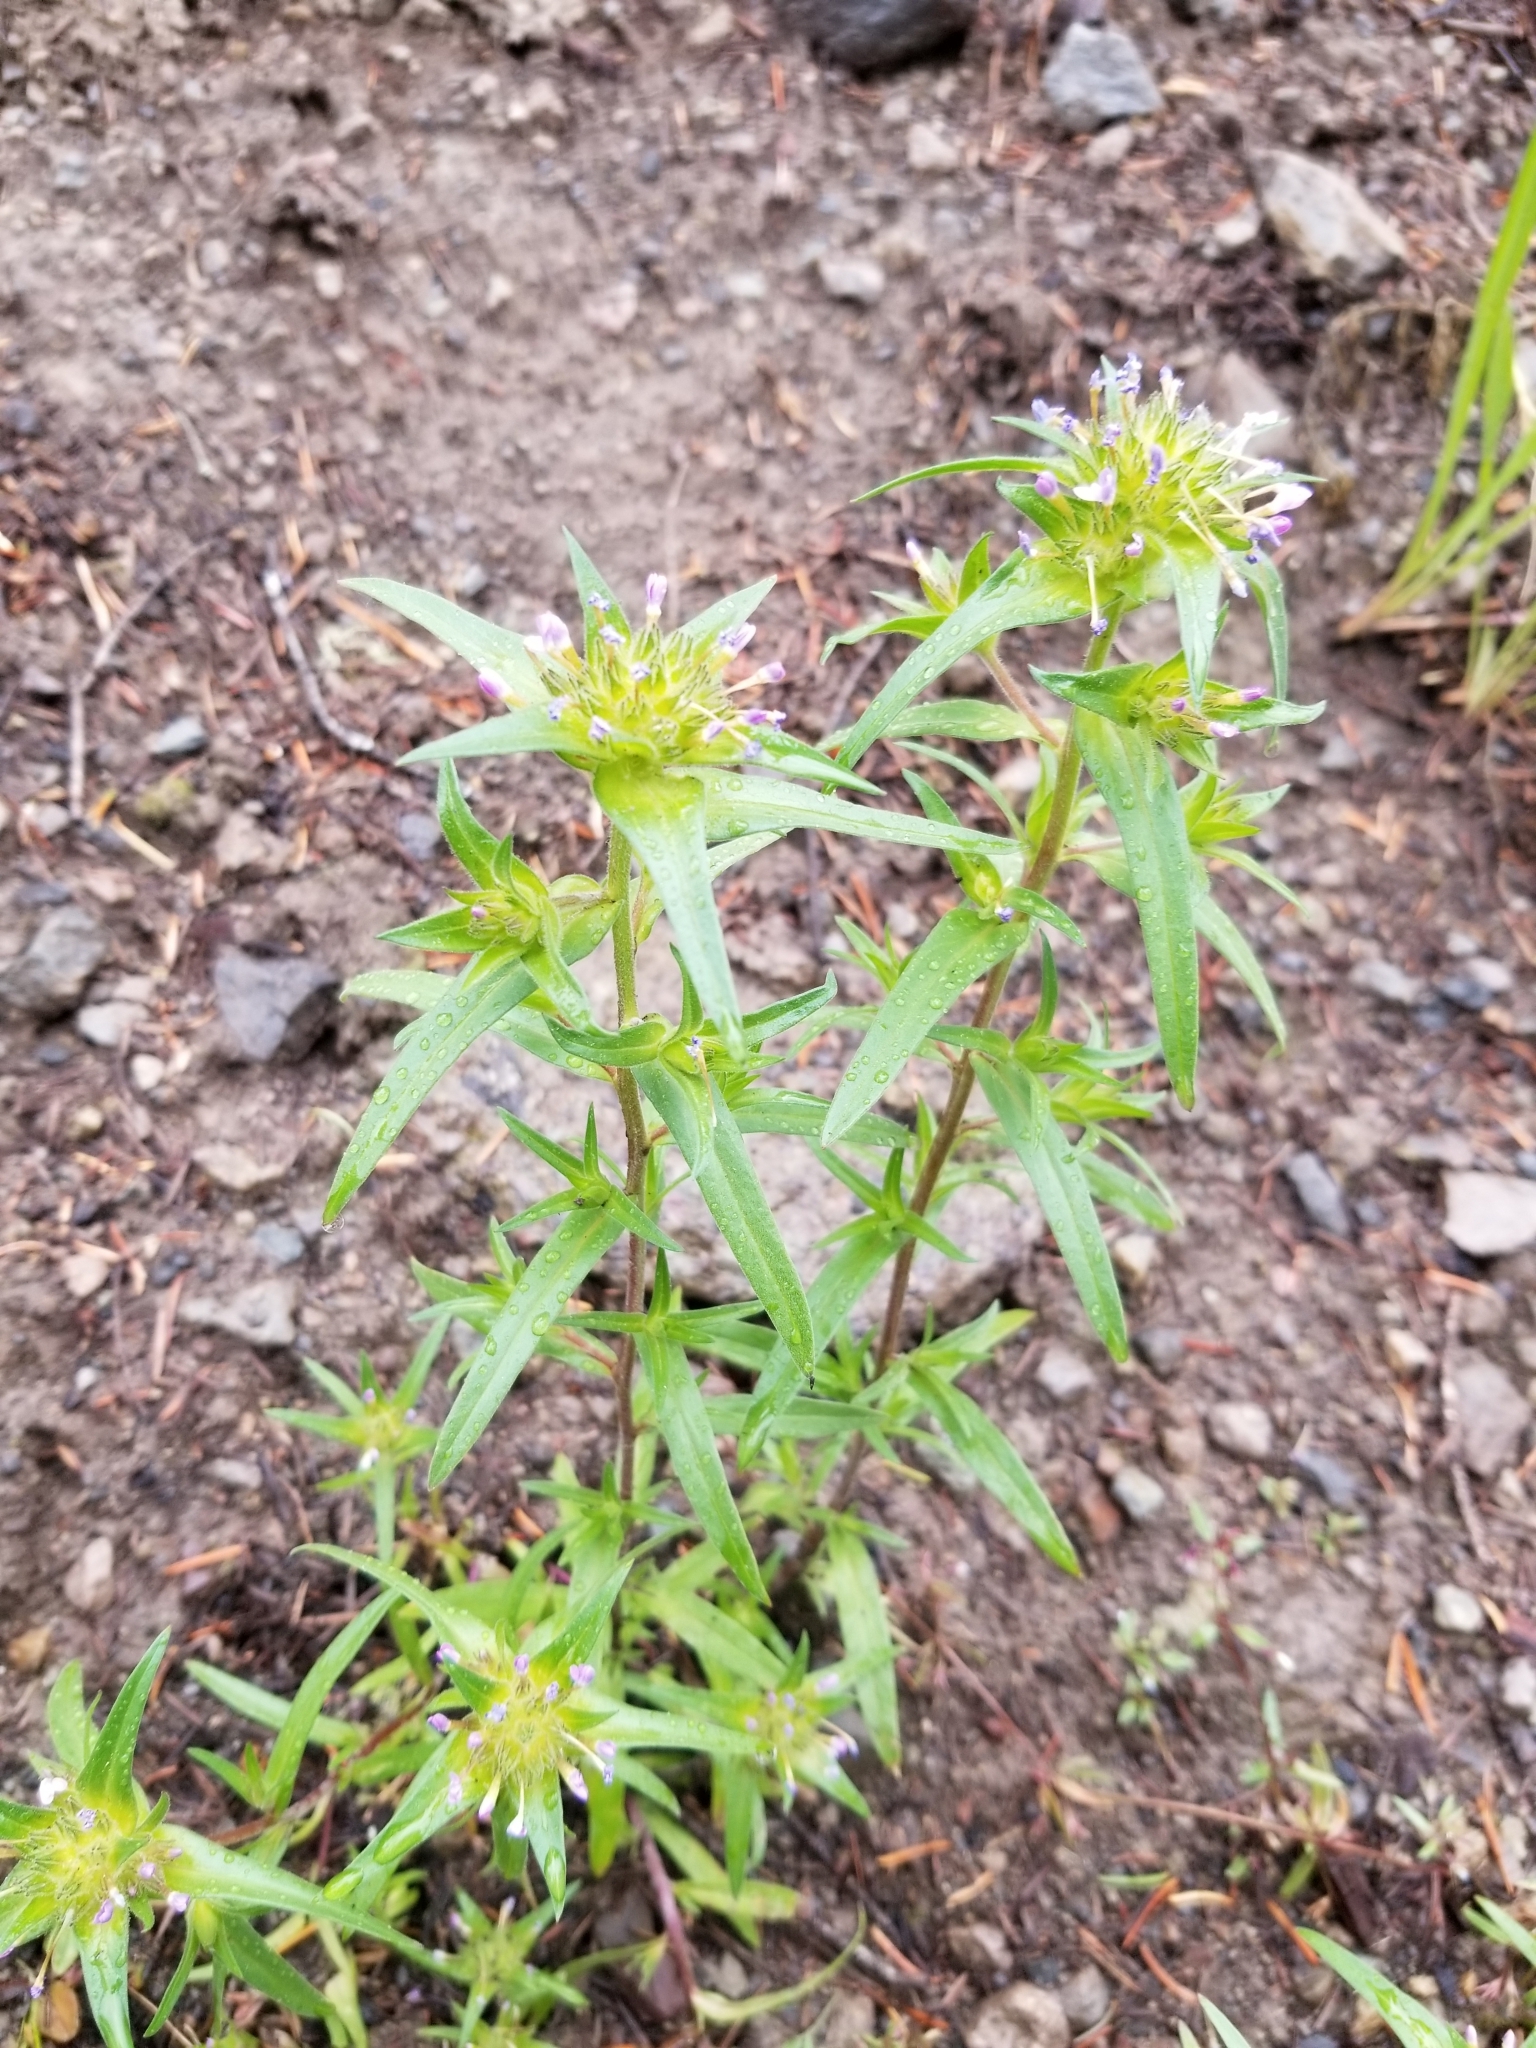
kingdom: Plantae
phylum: Tracheophyta
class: Magnoliopsida
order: Ericales
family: Polemoniaceae
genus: Collomia
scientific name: Collomia linearis
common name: Tiny trumpet
